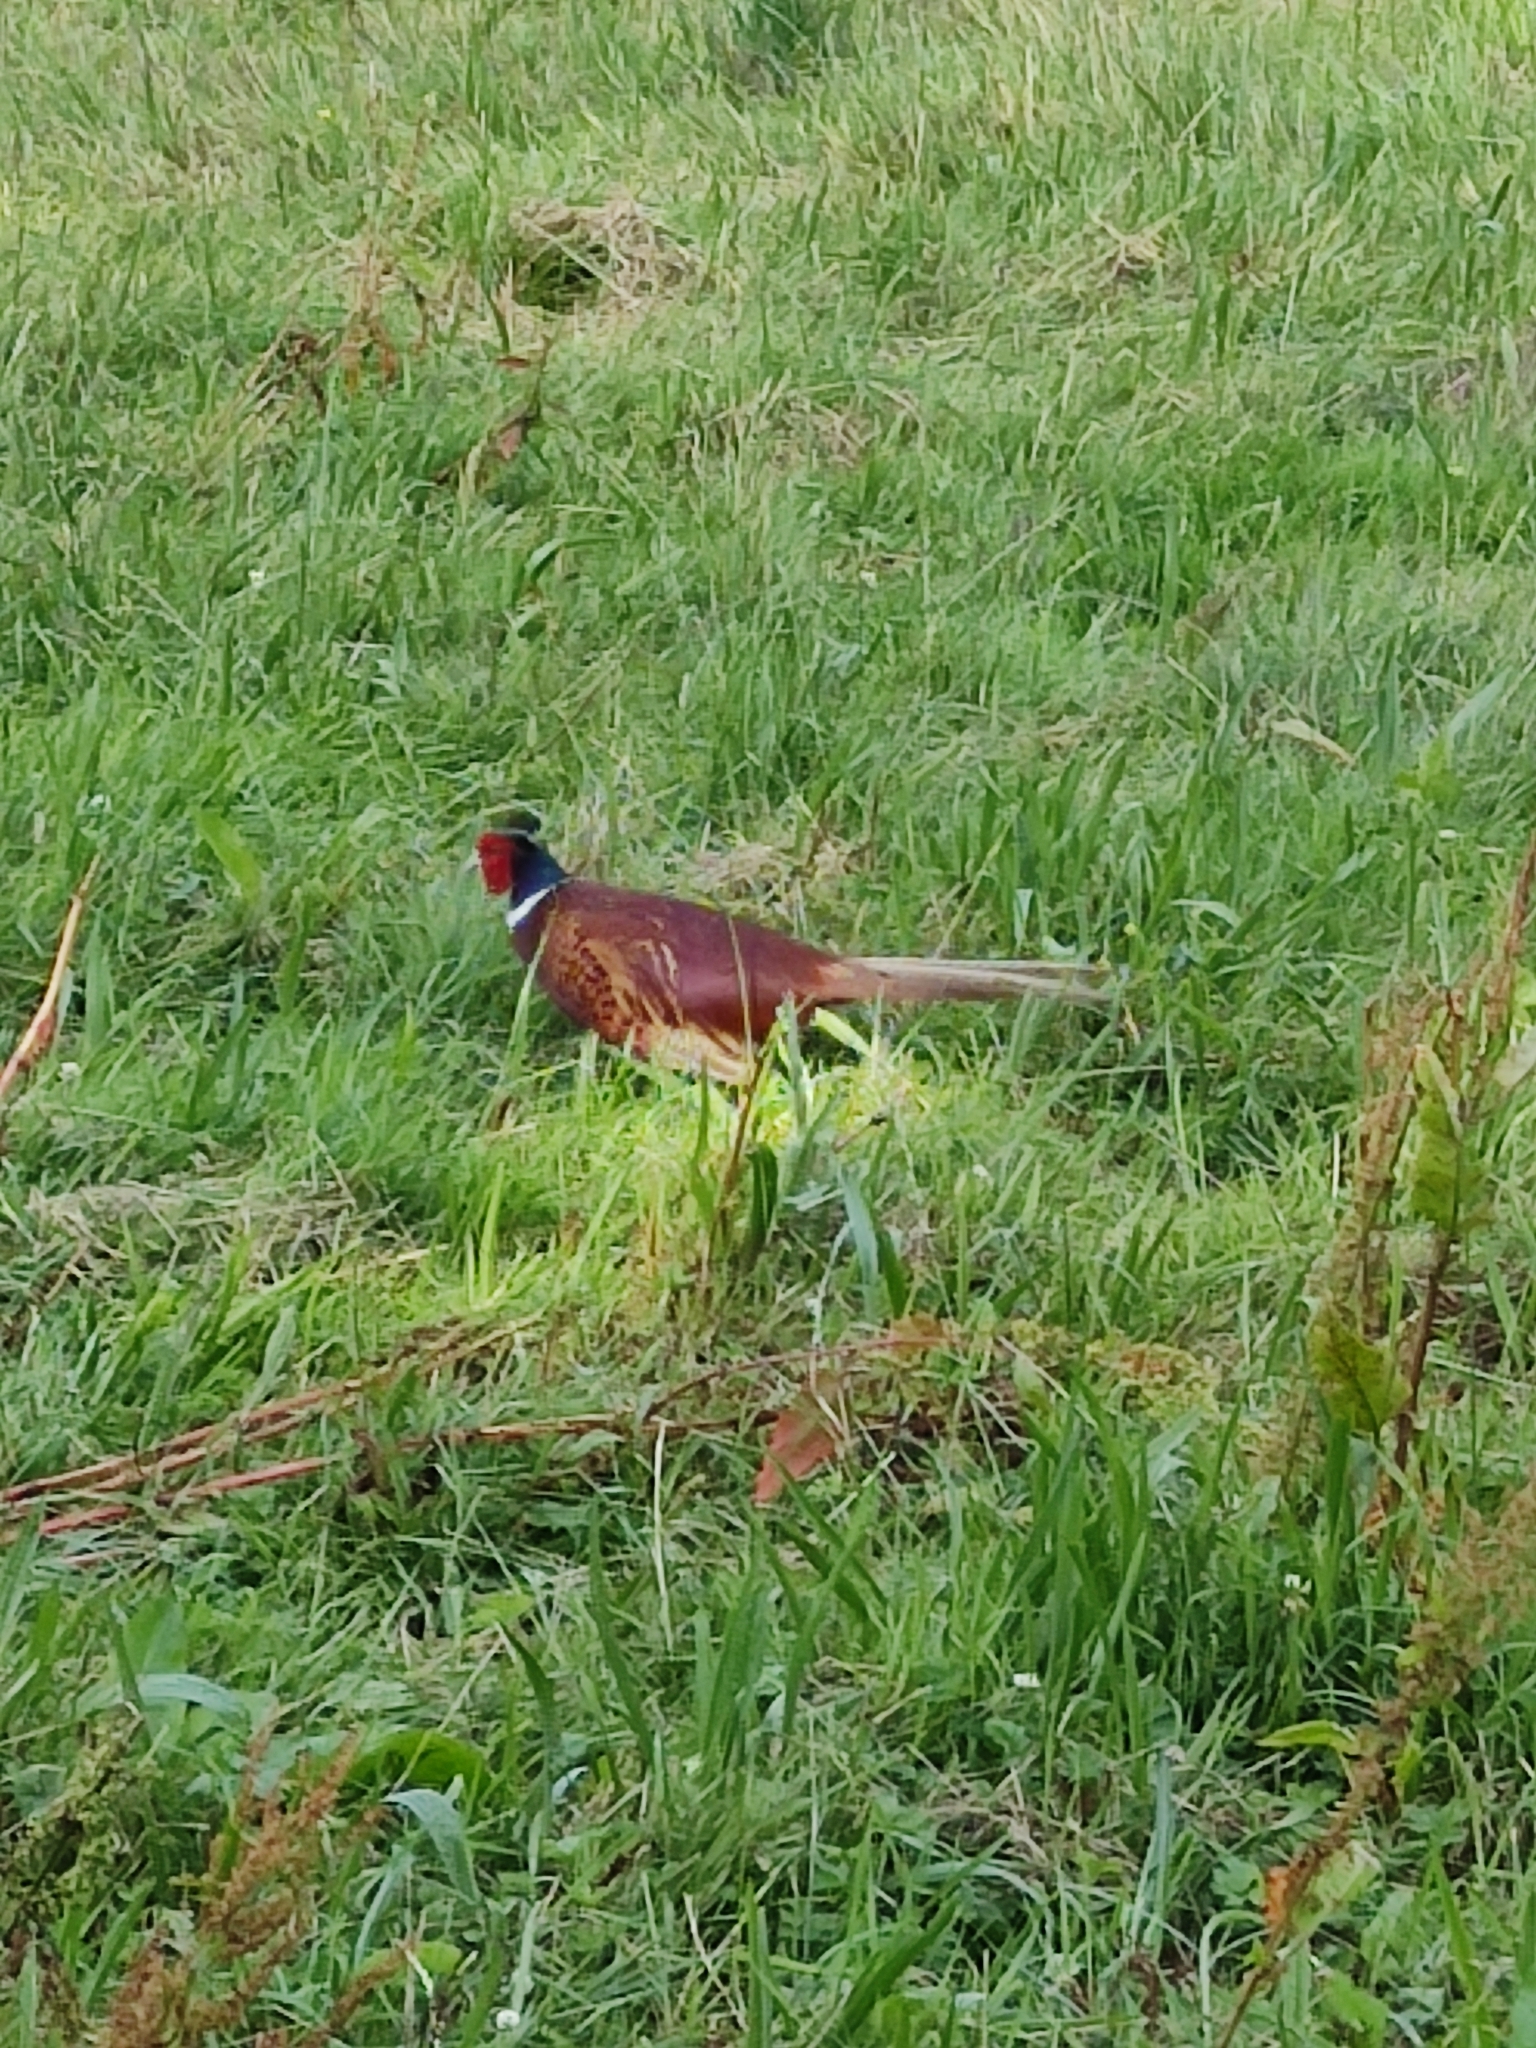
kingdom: Animalia
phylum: Chordata
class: Aves
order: Galliformes
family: Phasianidae
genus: Phasianus
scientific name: Phasianus colchicus
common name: Common pheasant
